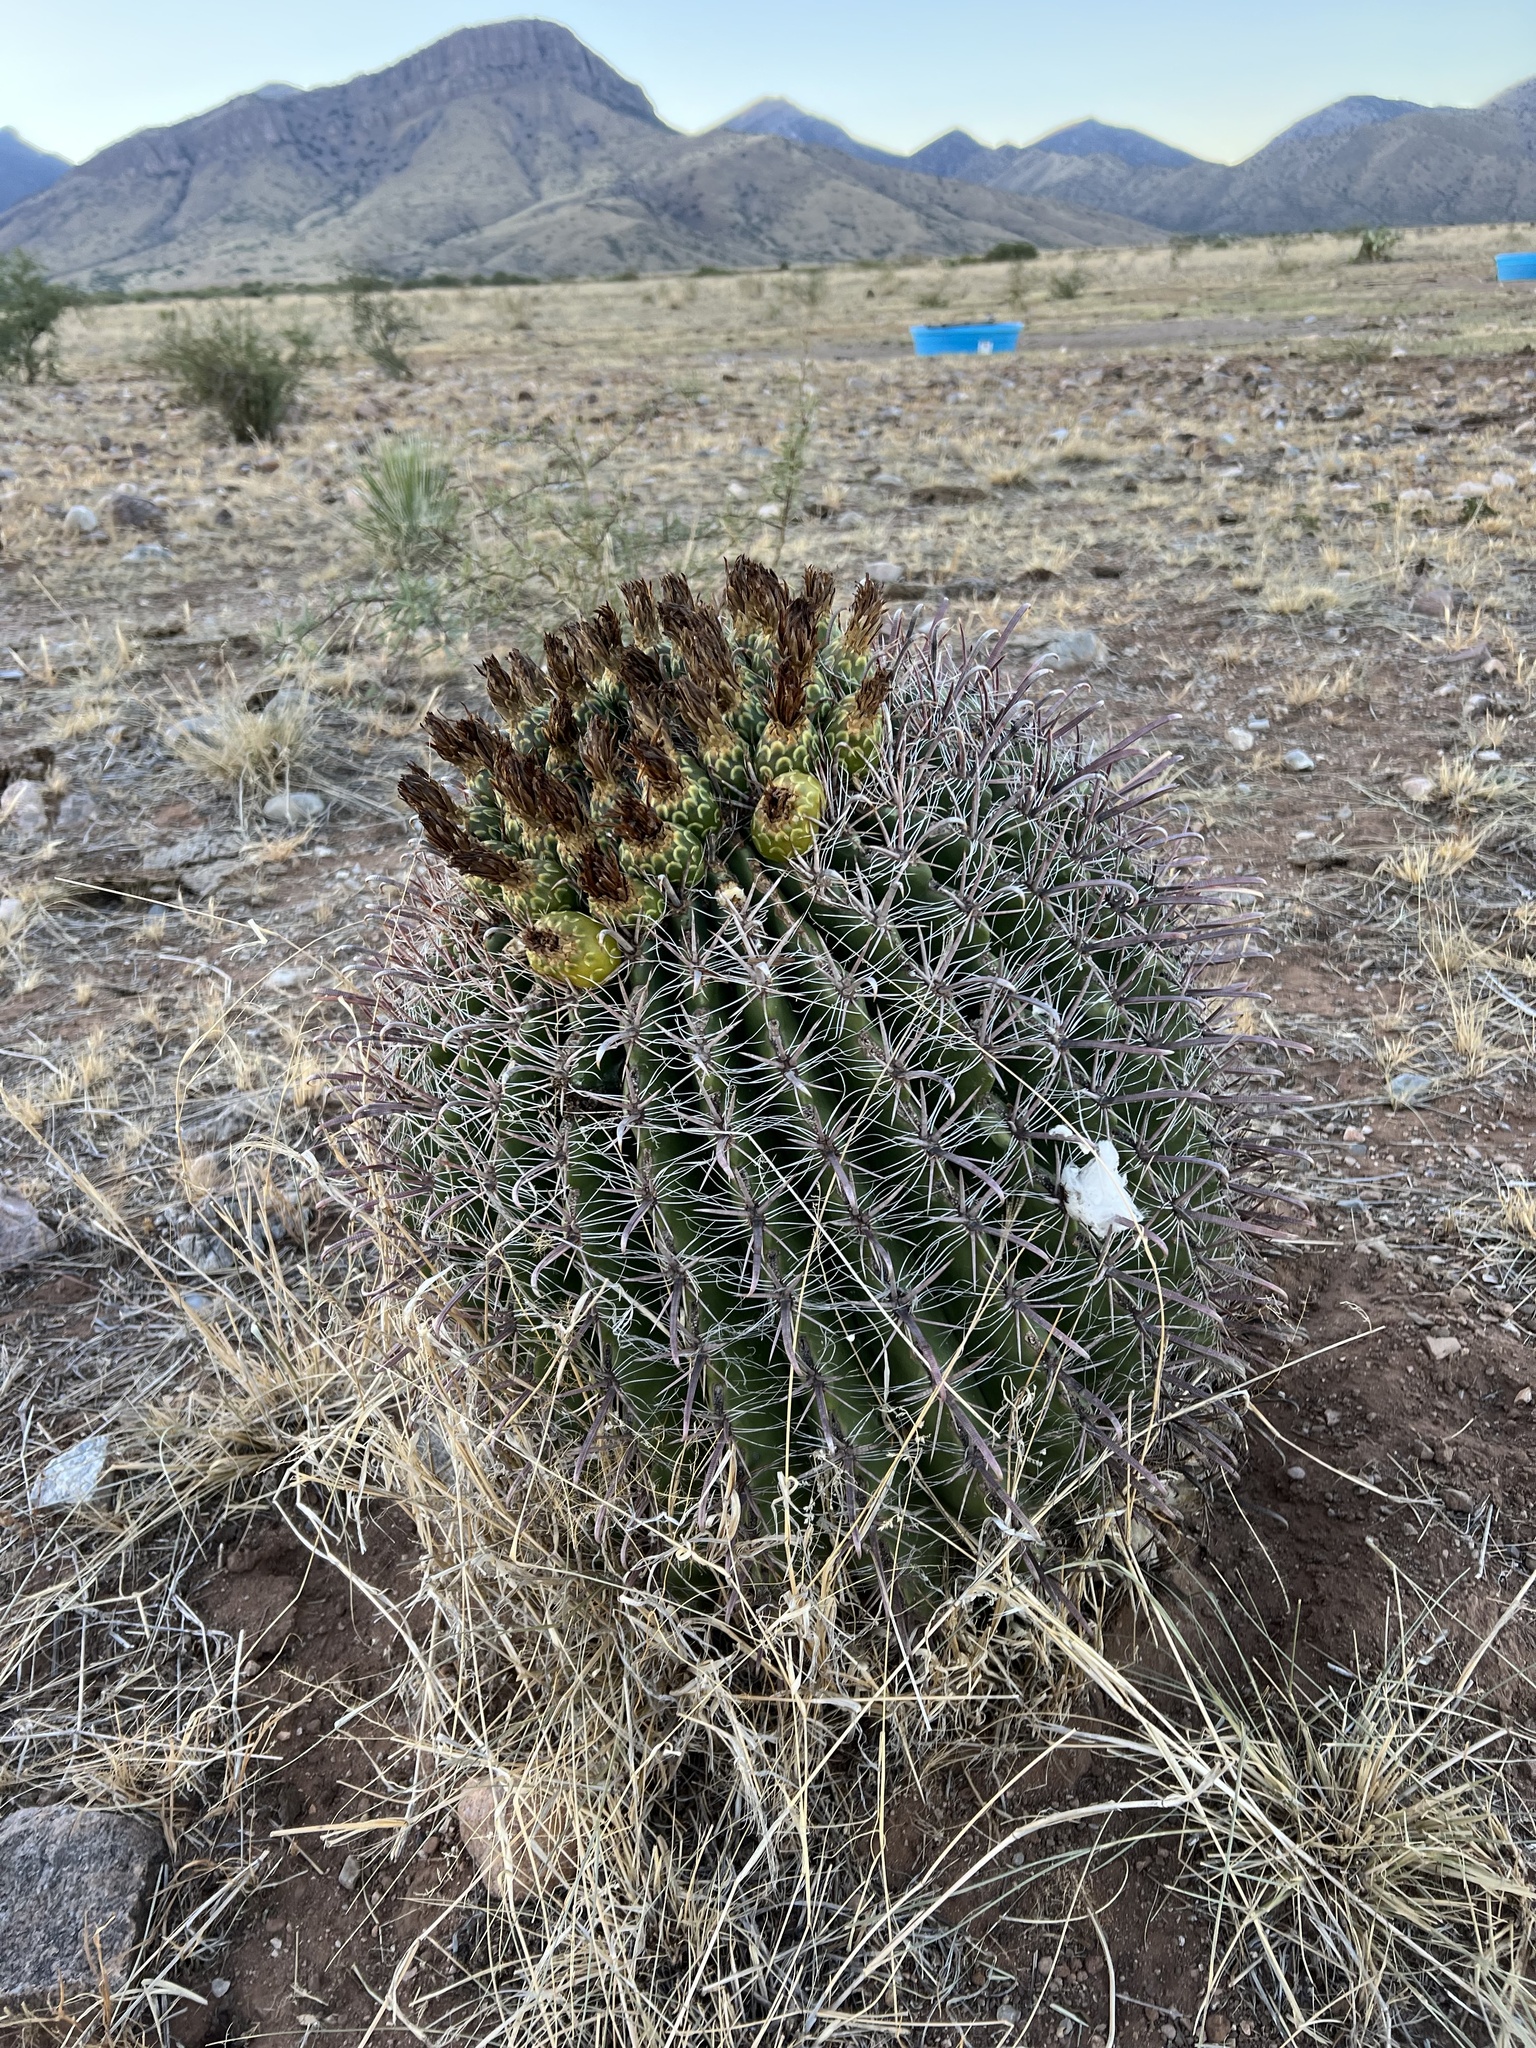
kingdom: Plantae
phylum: Tracheophyta
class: Magnoliopsida
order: Caryophyllales
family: Cactaceae
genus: Ferocactus
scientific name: Ferocactus wislizeni
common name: Candy barrel cactus
